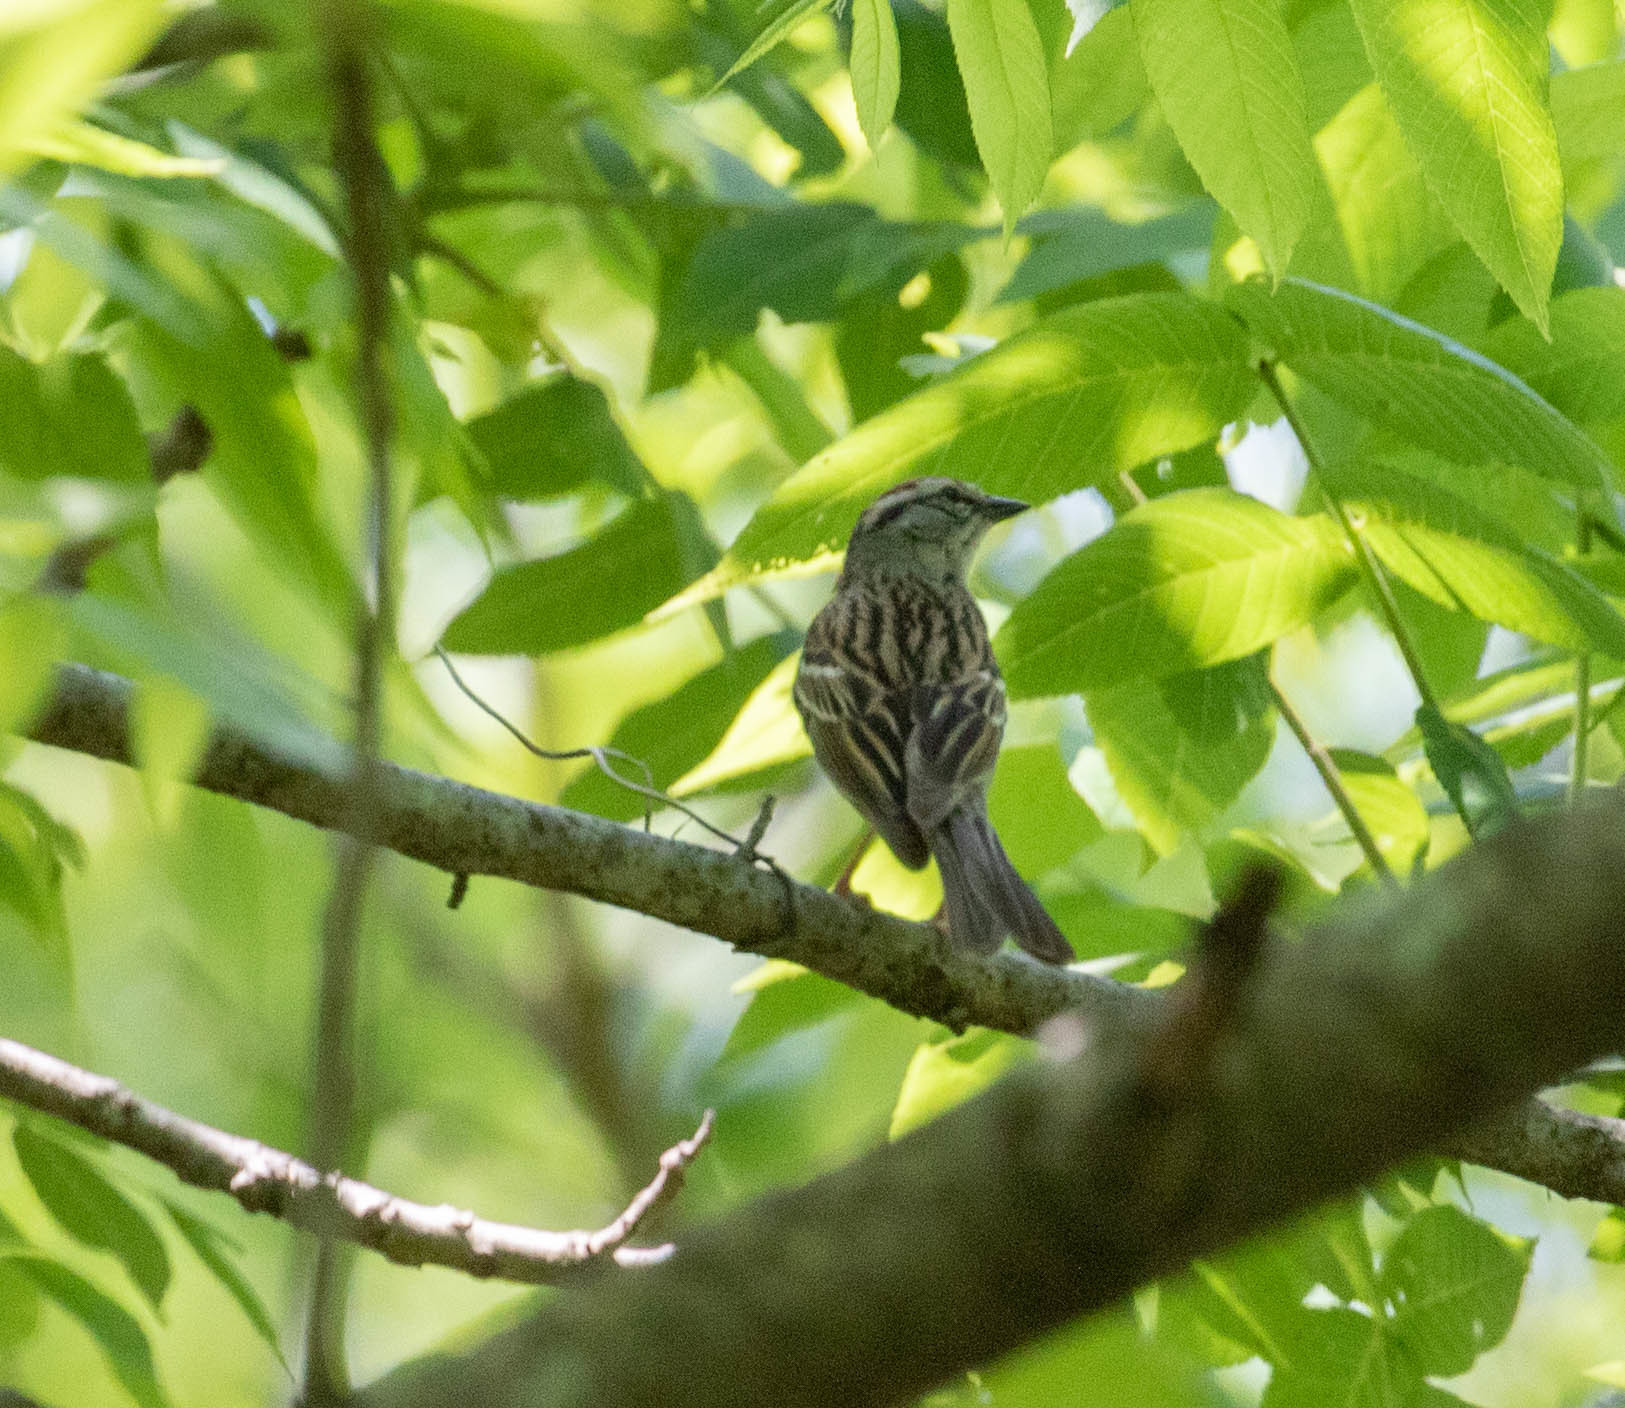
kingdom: Animalia
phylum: Chordata
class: Aves
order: Passeriformes
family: Passerellidae
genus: Spizella
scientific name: Spizella passerina
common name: Chipping sparrow
